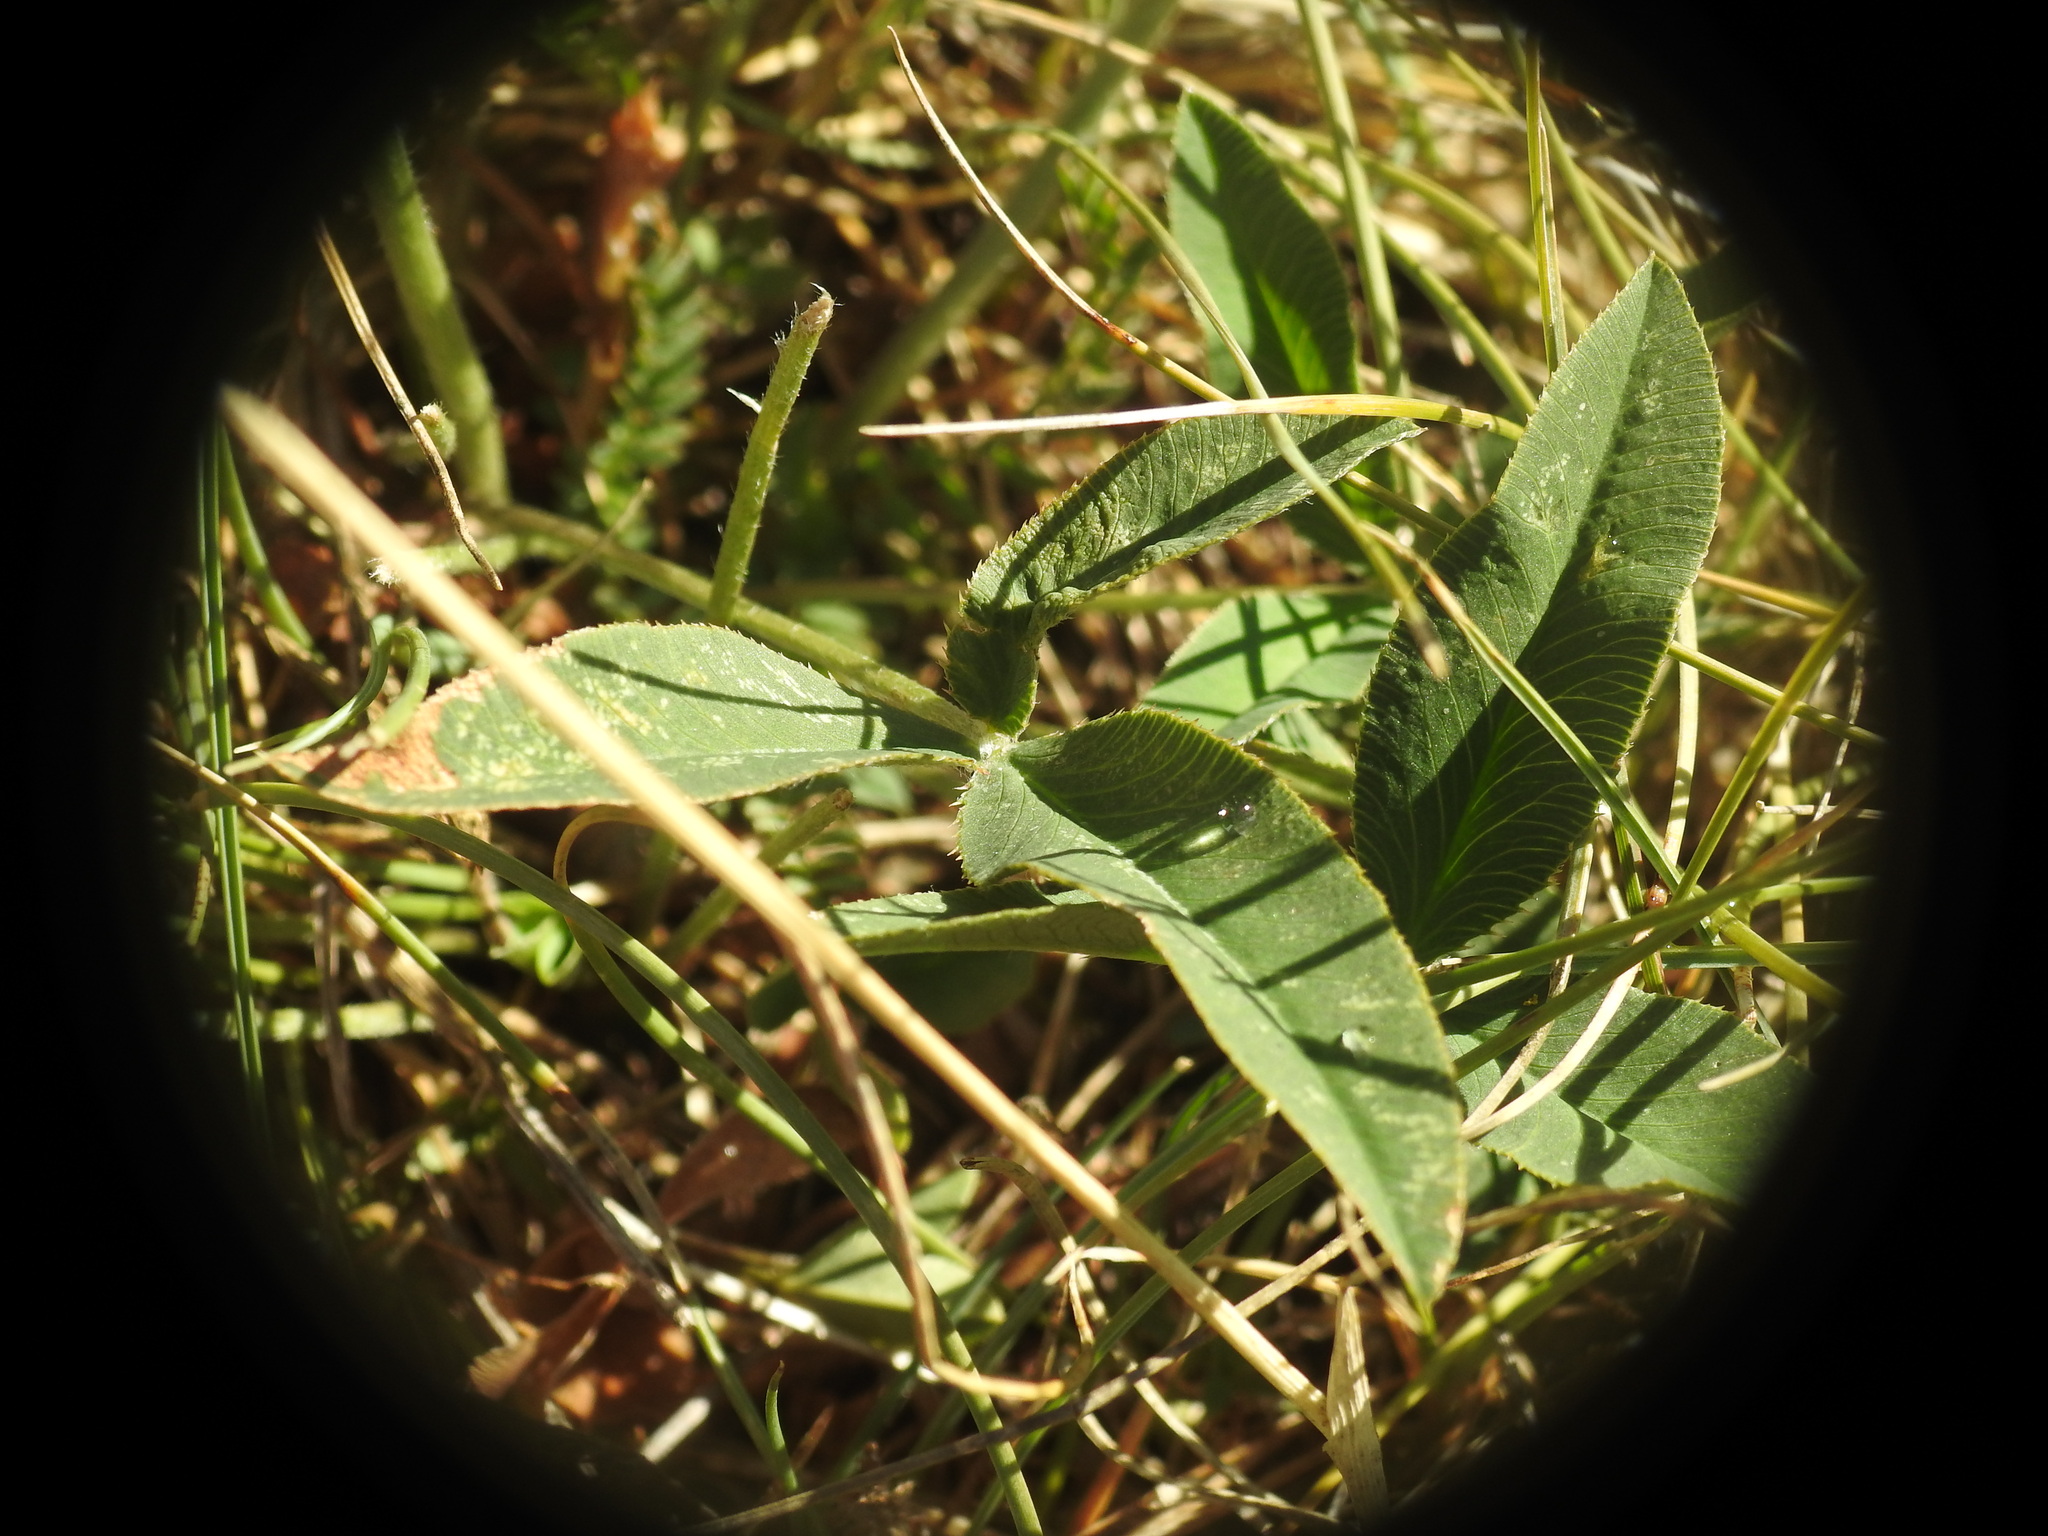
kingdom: Plantae
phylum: Tracheophyta
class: Magnoliopsida
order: Fabales
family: Fabaceae
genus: Trifolium
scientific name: Trifolium montanum
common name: Mountain clover
